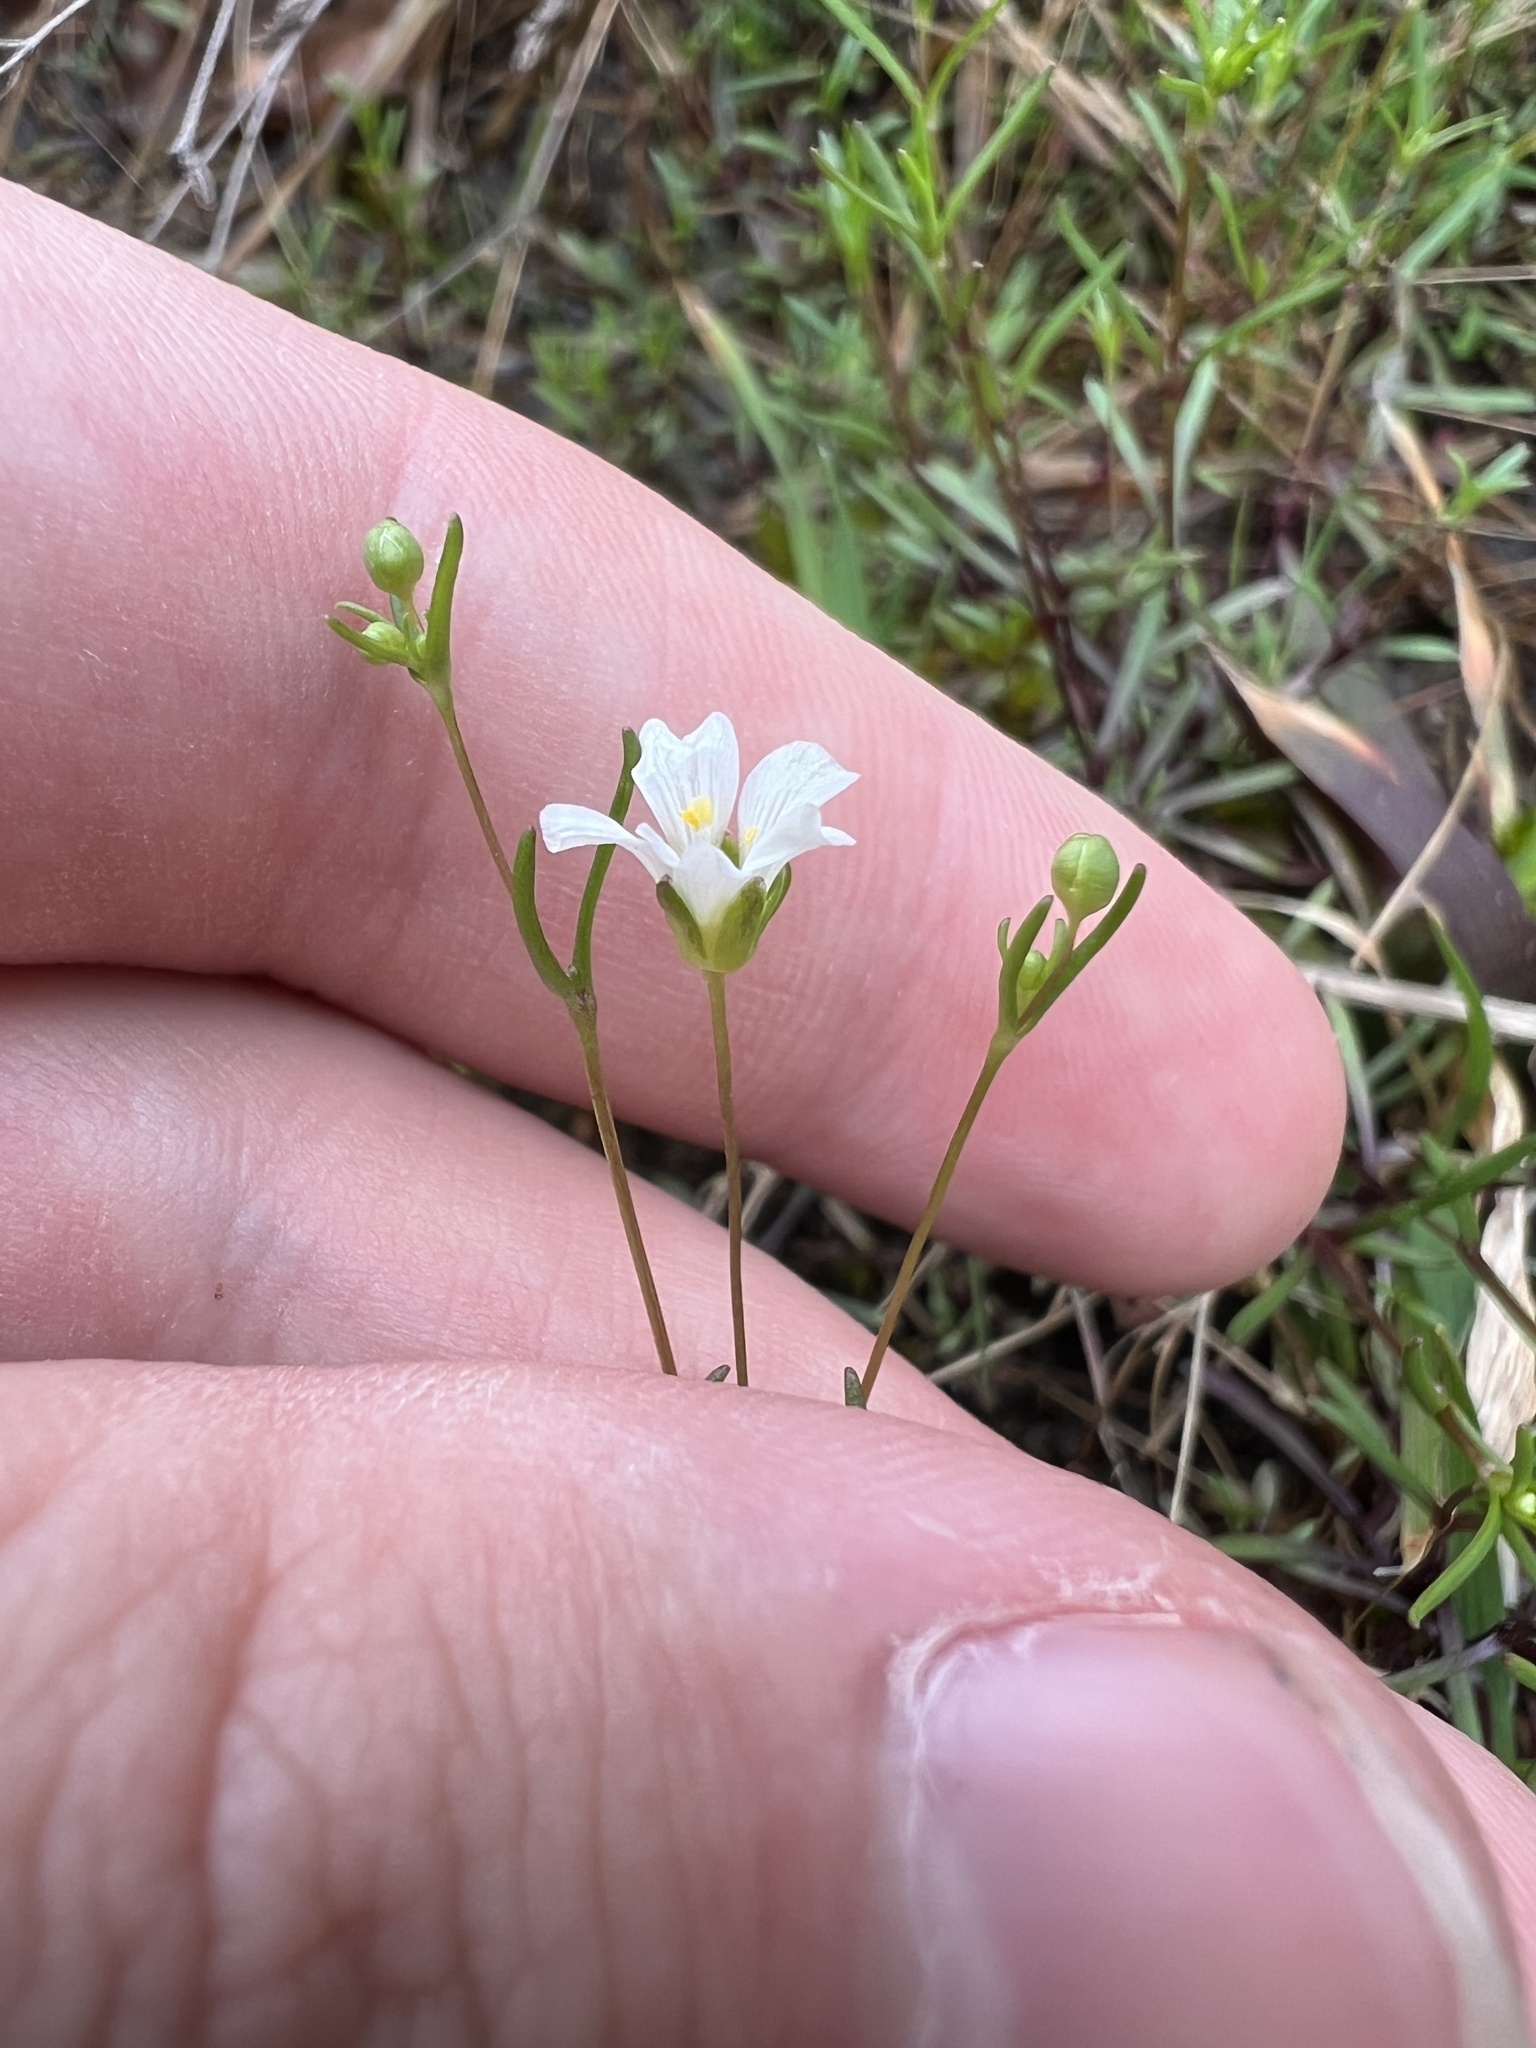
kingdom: Plantae
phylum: Tracheophyta
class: Magnoliopsida
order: Caryophyllales
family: Caryophyllaceae
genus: Geocarpon
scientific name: Geocarpon glabrum
